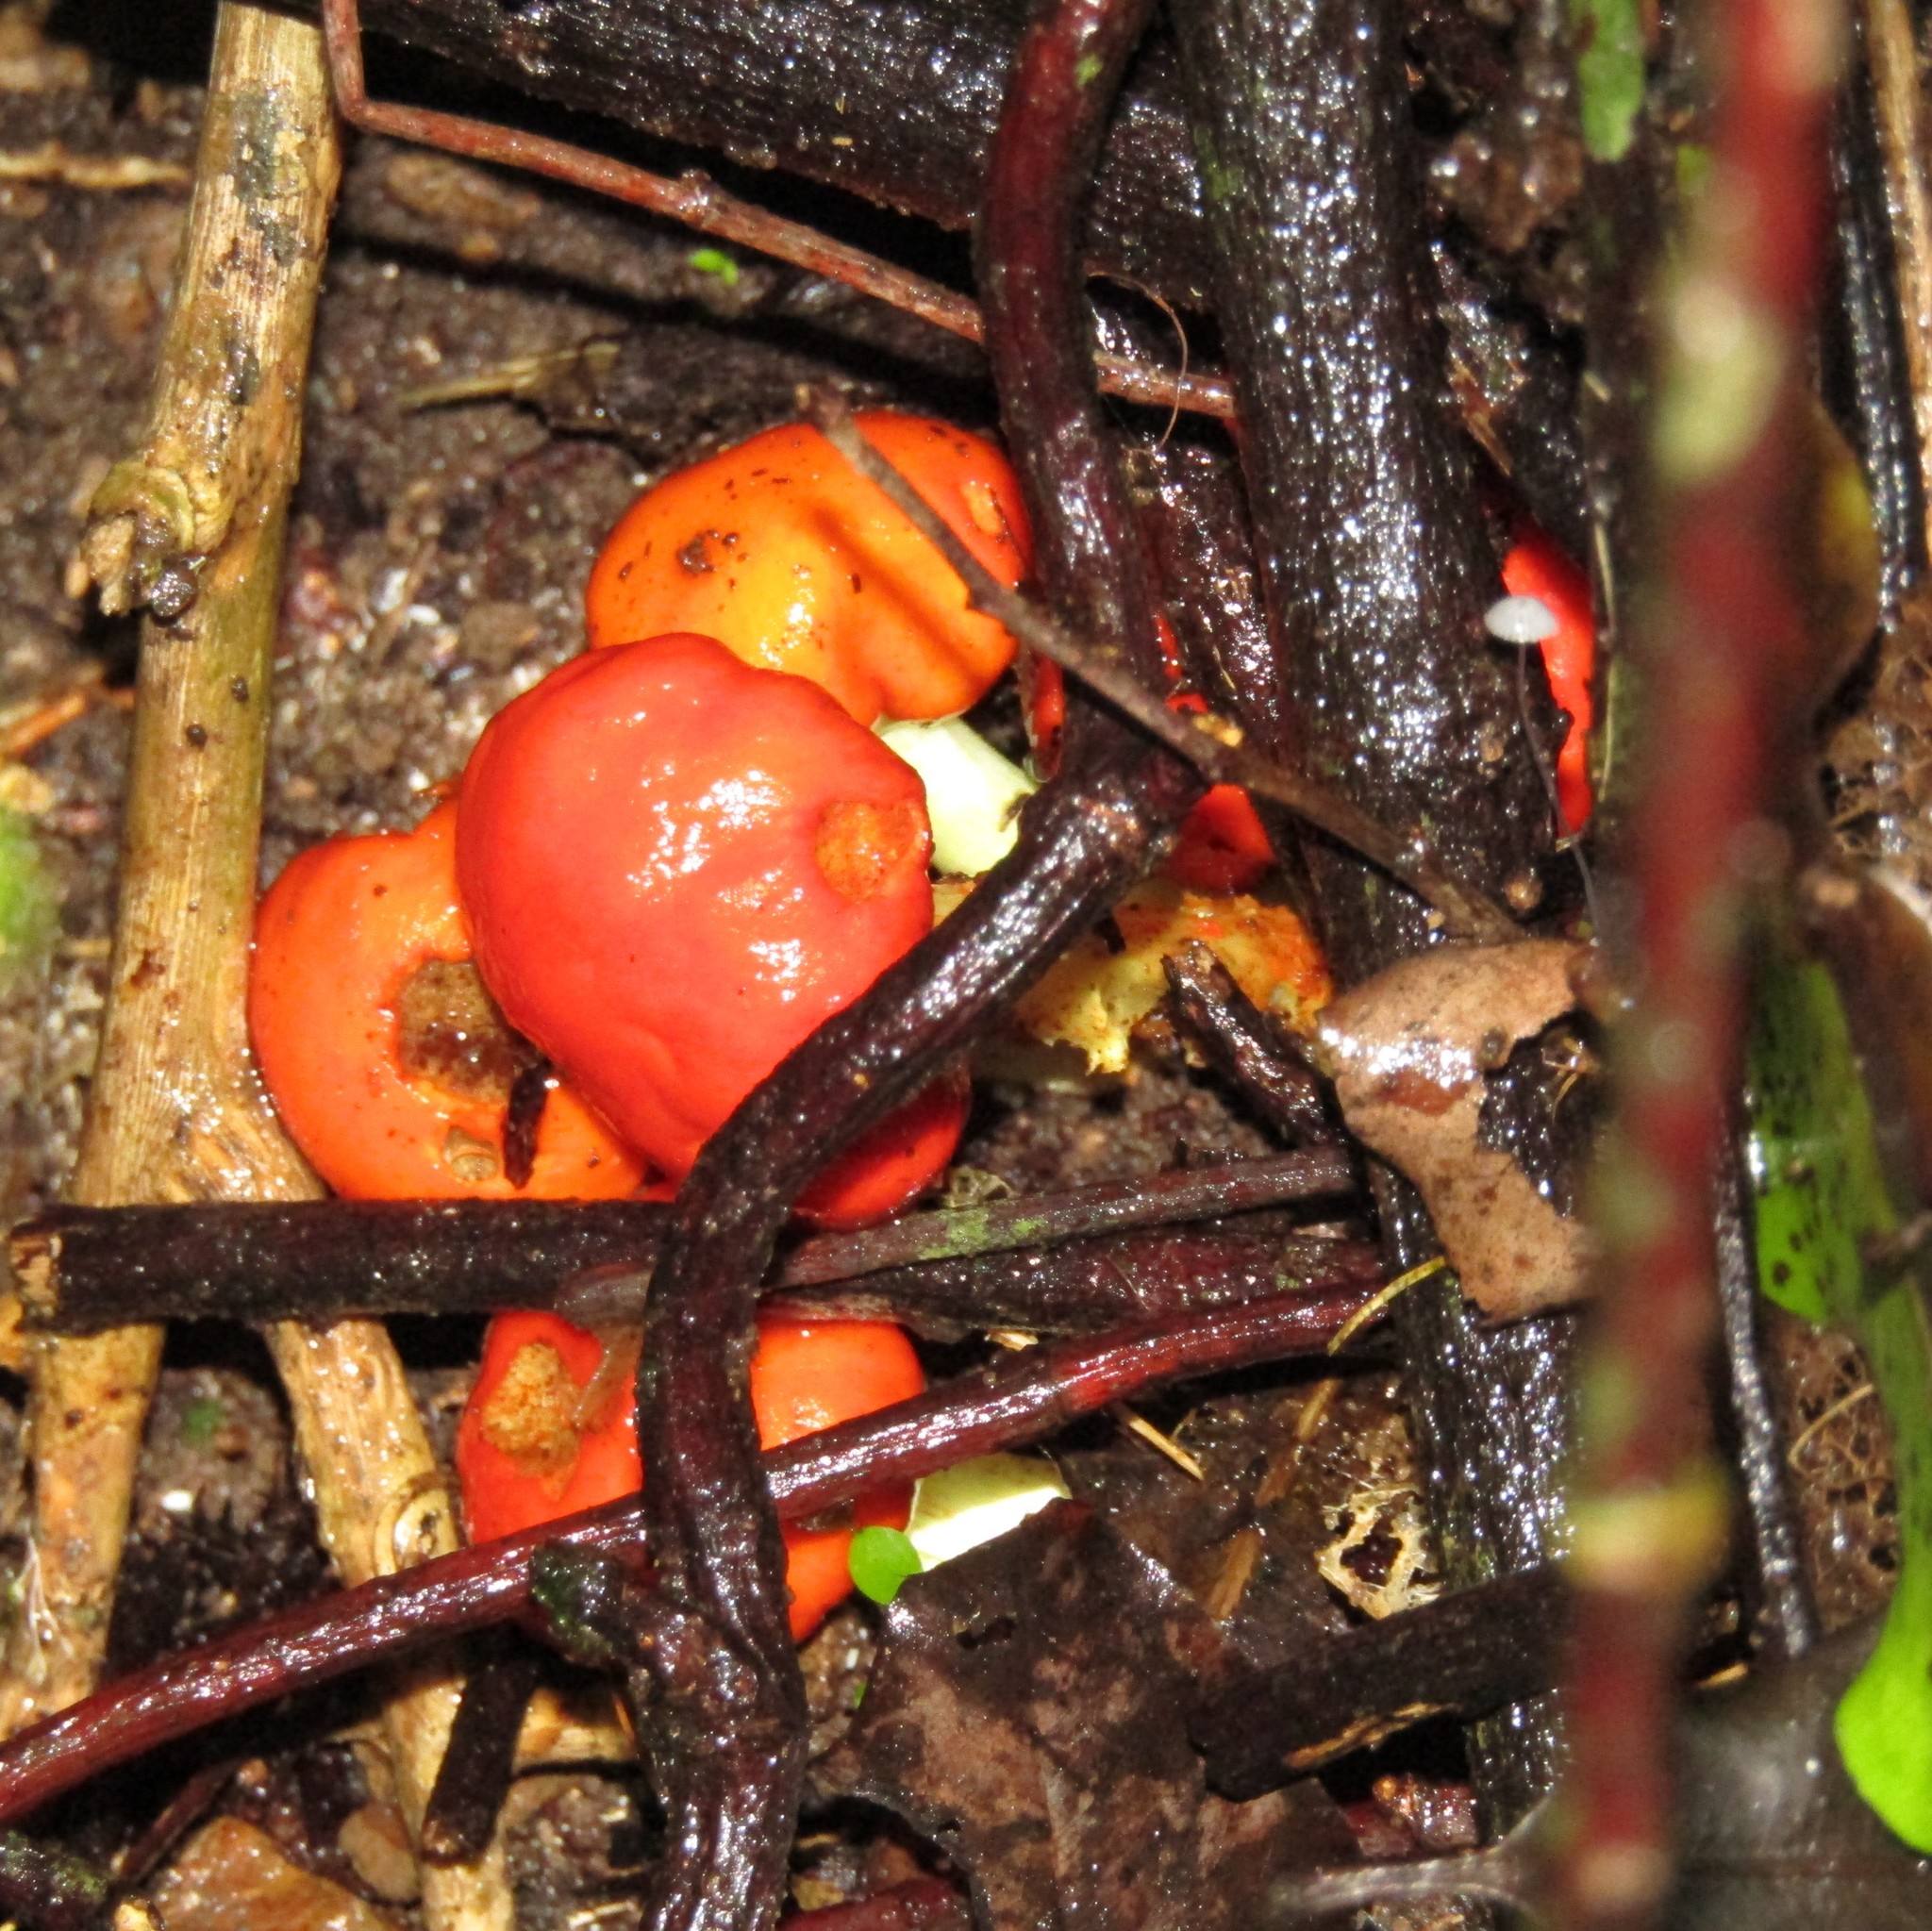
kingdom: Fungi
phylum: Basidiomycota
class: Agaricomycetes
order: Agaricales
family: Strophariaceae
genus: Leratiomyces
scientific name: Leratiomyces erythrocephalus
